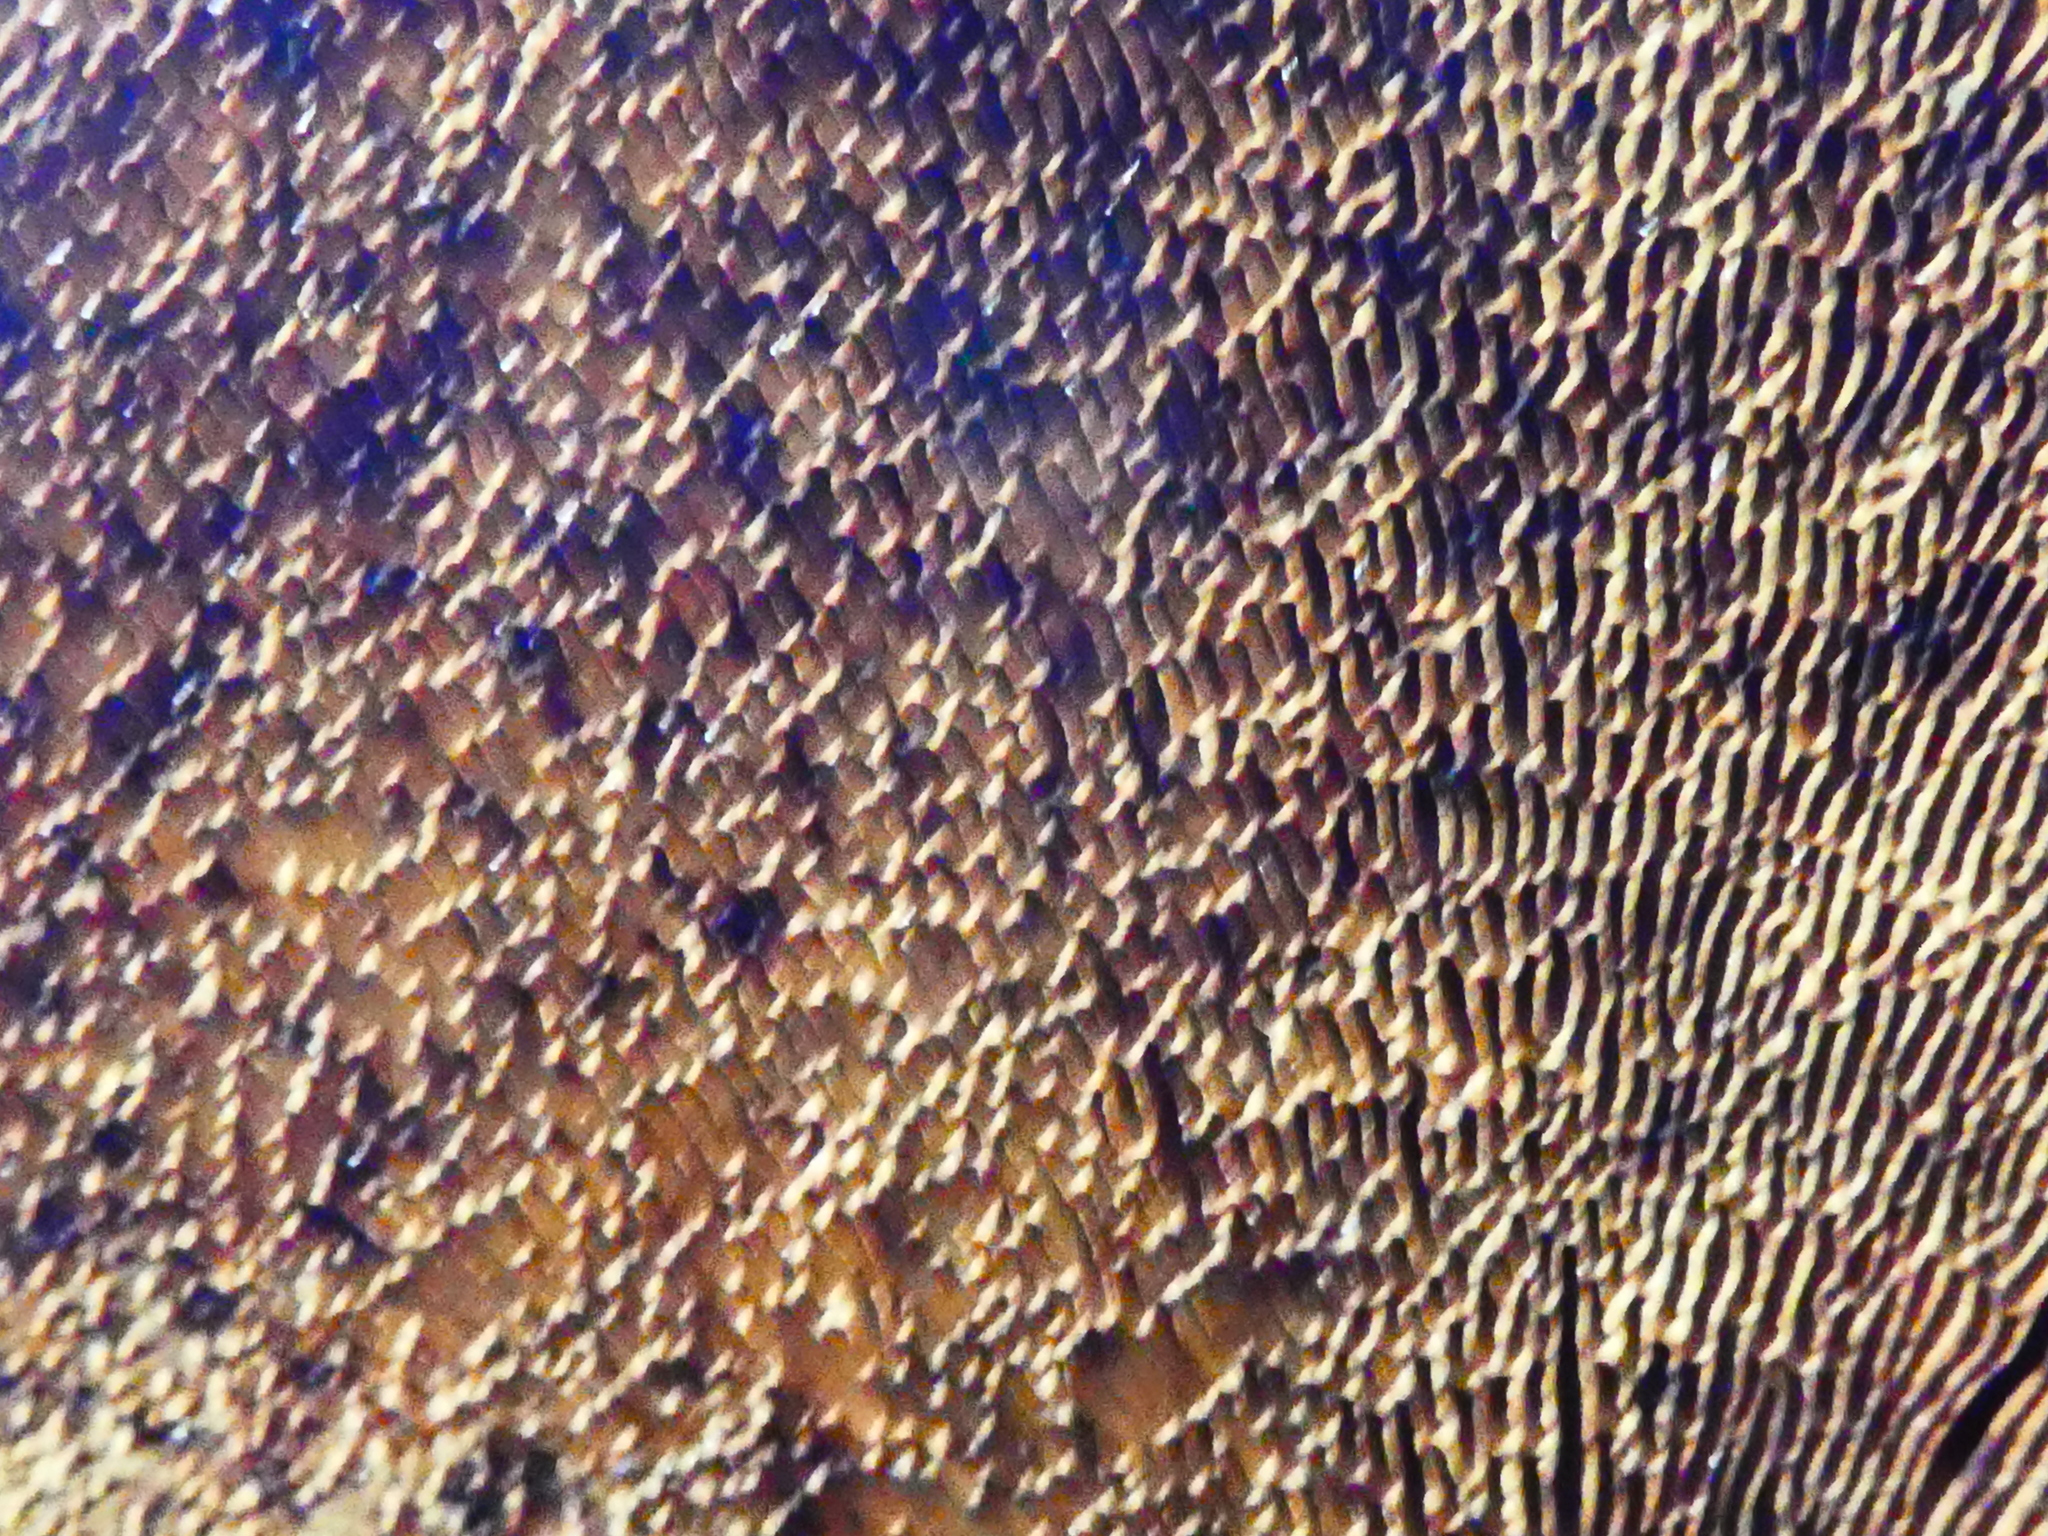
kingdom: Fungi
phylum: Basidiomycota
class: Agaricomycetes
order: Polyporales
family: Polyporaceae
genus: Daedaleopsis
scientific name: Daedaleopsis confragosa
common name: Blushing bracket
